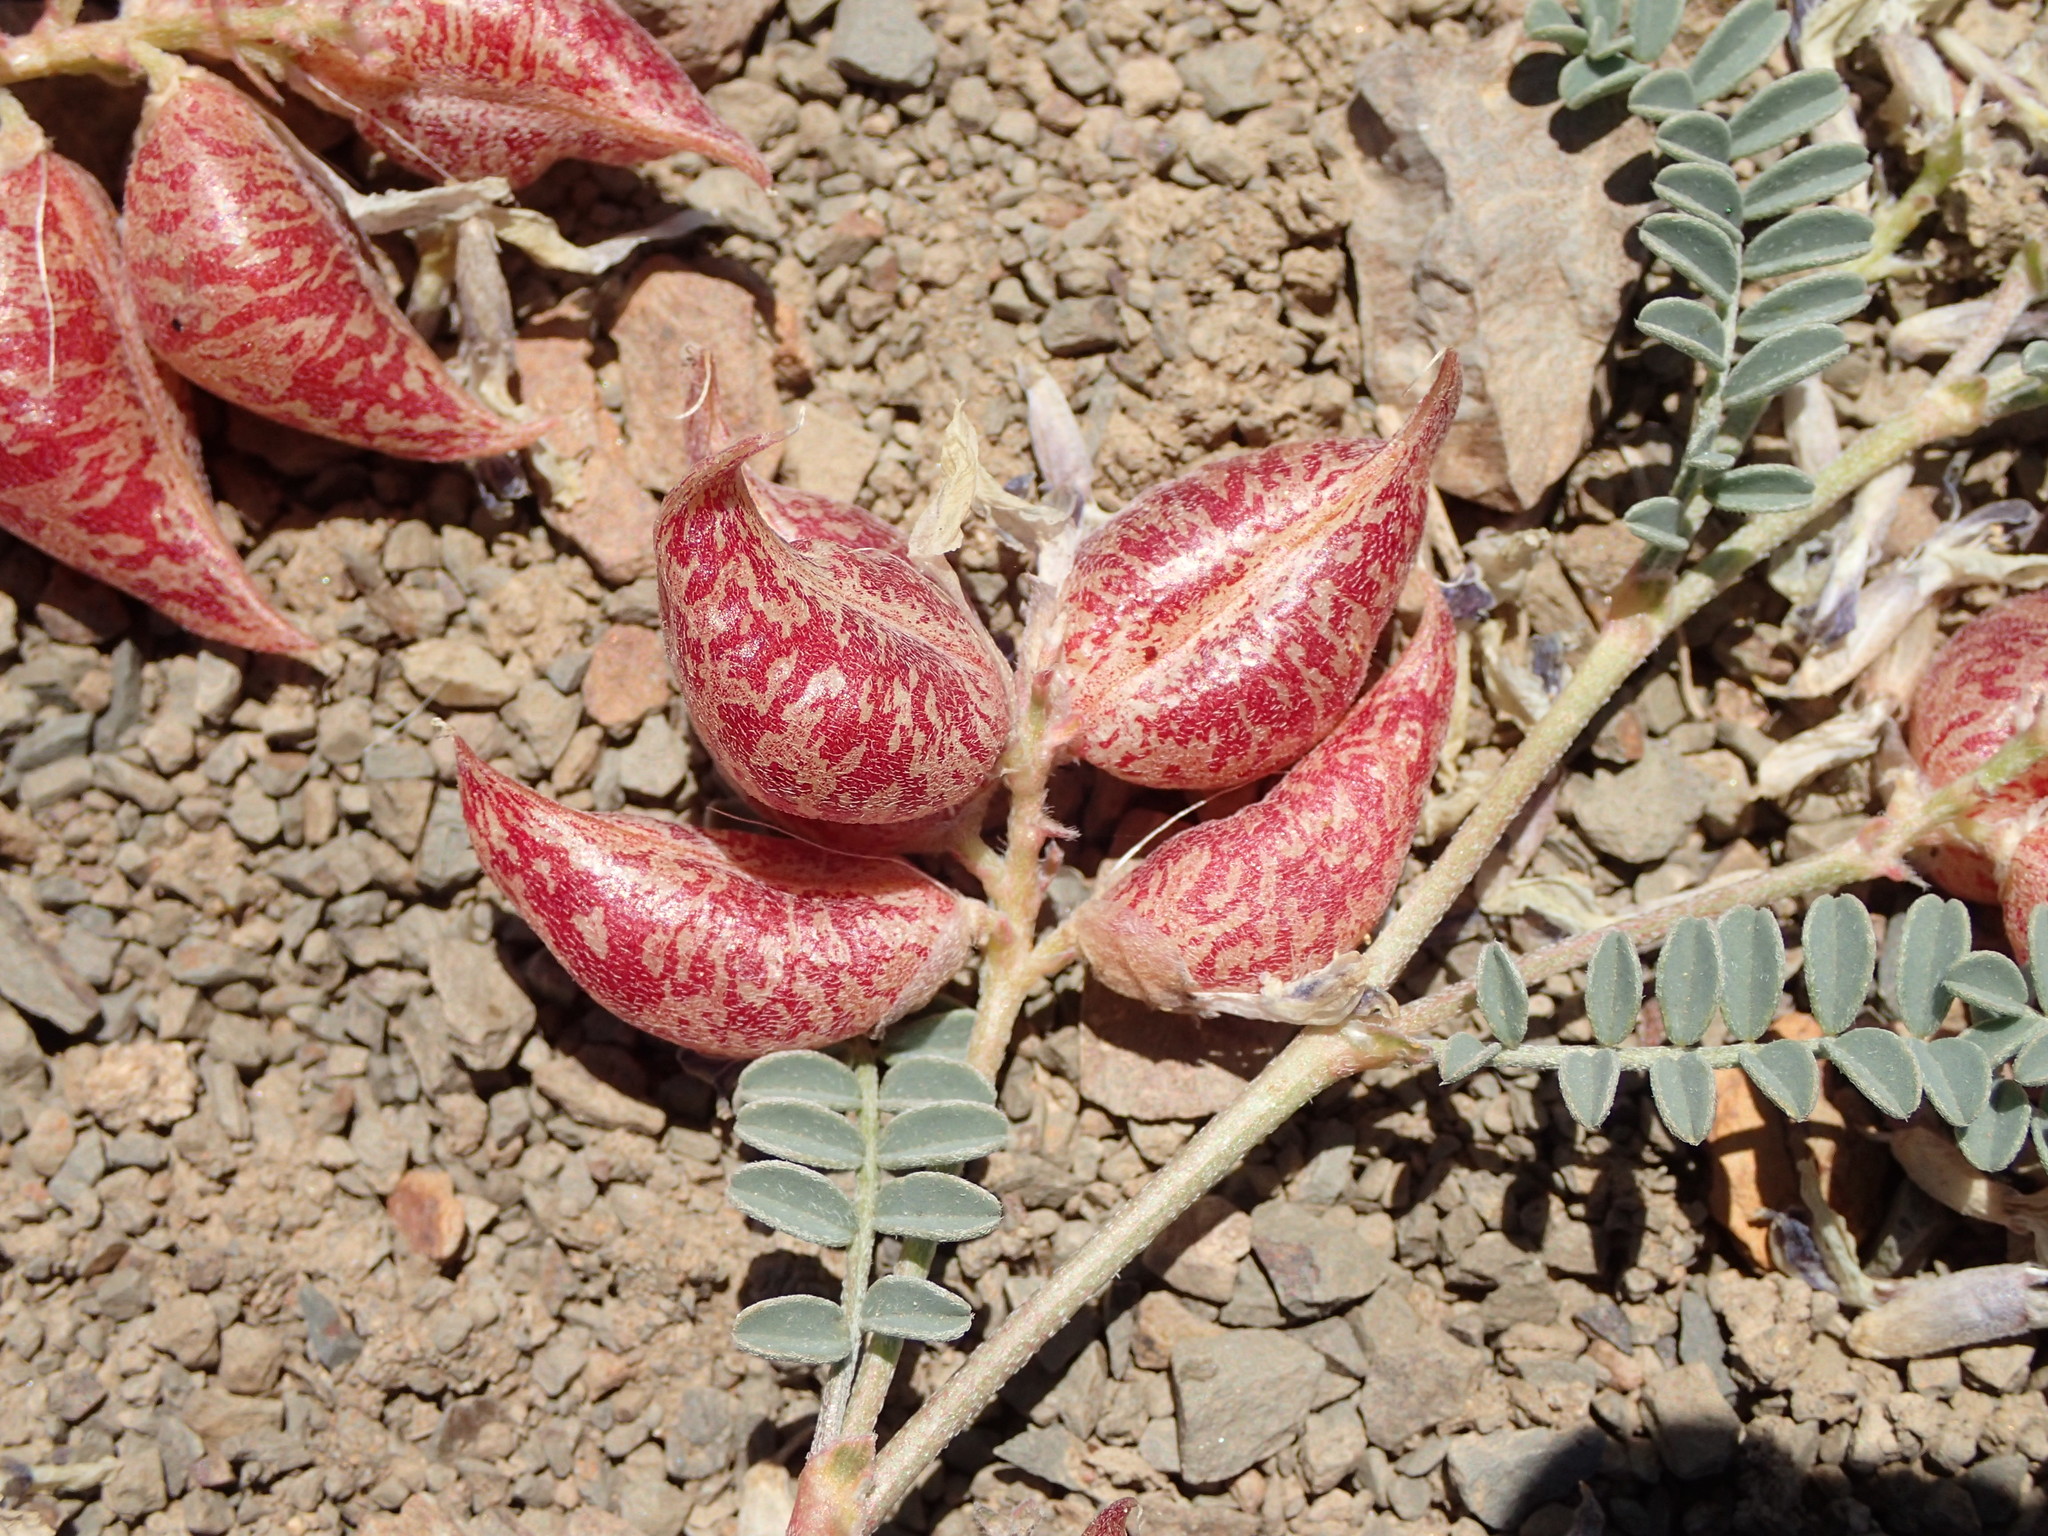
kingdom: Plantae
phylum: Tracheophyta
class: Magnoliopsida
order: Fabales
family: Fabaceae
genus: Astragalus
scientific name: Astragalus lentiginosus
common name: Freckled milkvetch
